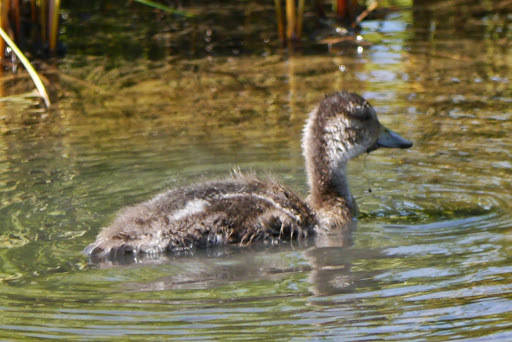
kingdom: Animalia
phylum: Chordata
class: Aves
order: Anseriformes
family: Anatidae
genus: Anas
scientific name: Anas acuta
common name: Northern pintail
